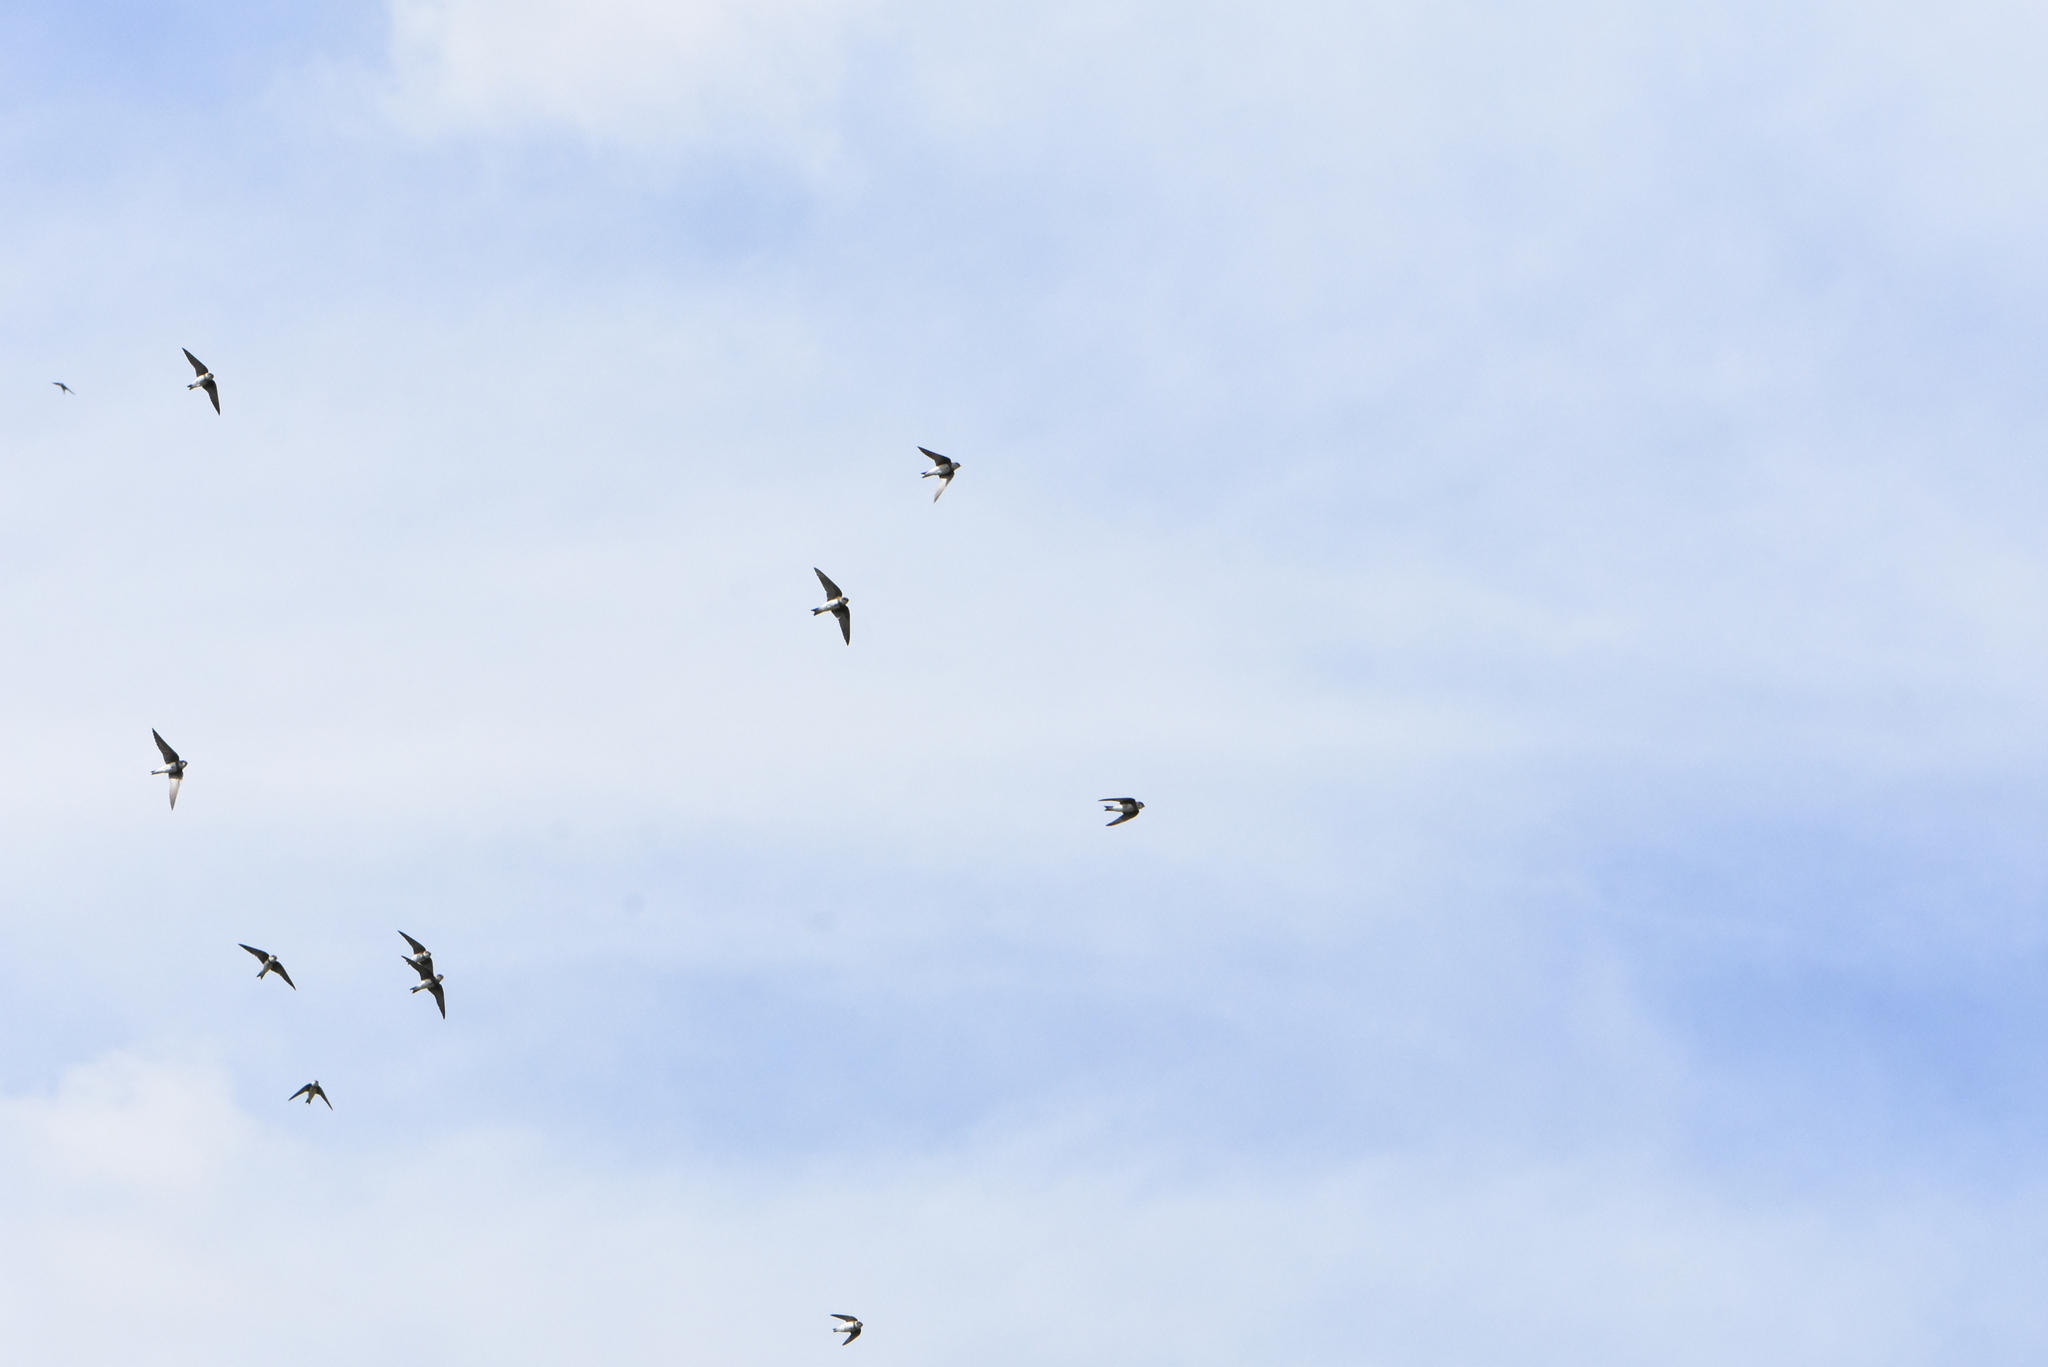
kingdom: Animalia
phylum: Chordata
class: Aves
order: Passeriformes
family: Hirundinidae
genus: Riparia
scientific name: Riparia riparia
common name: Sand martin
